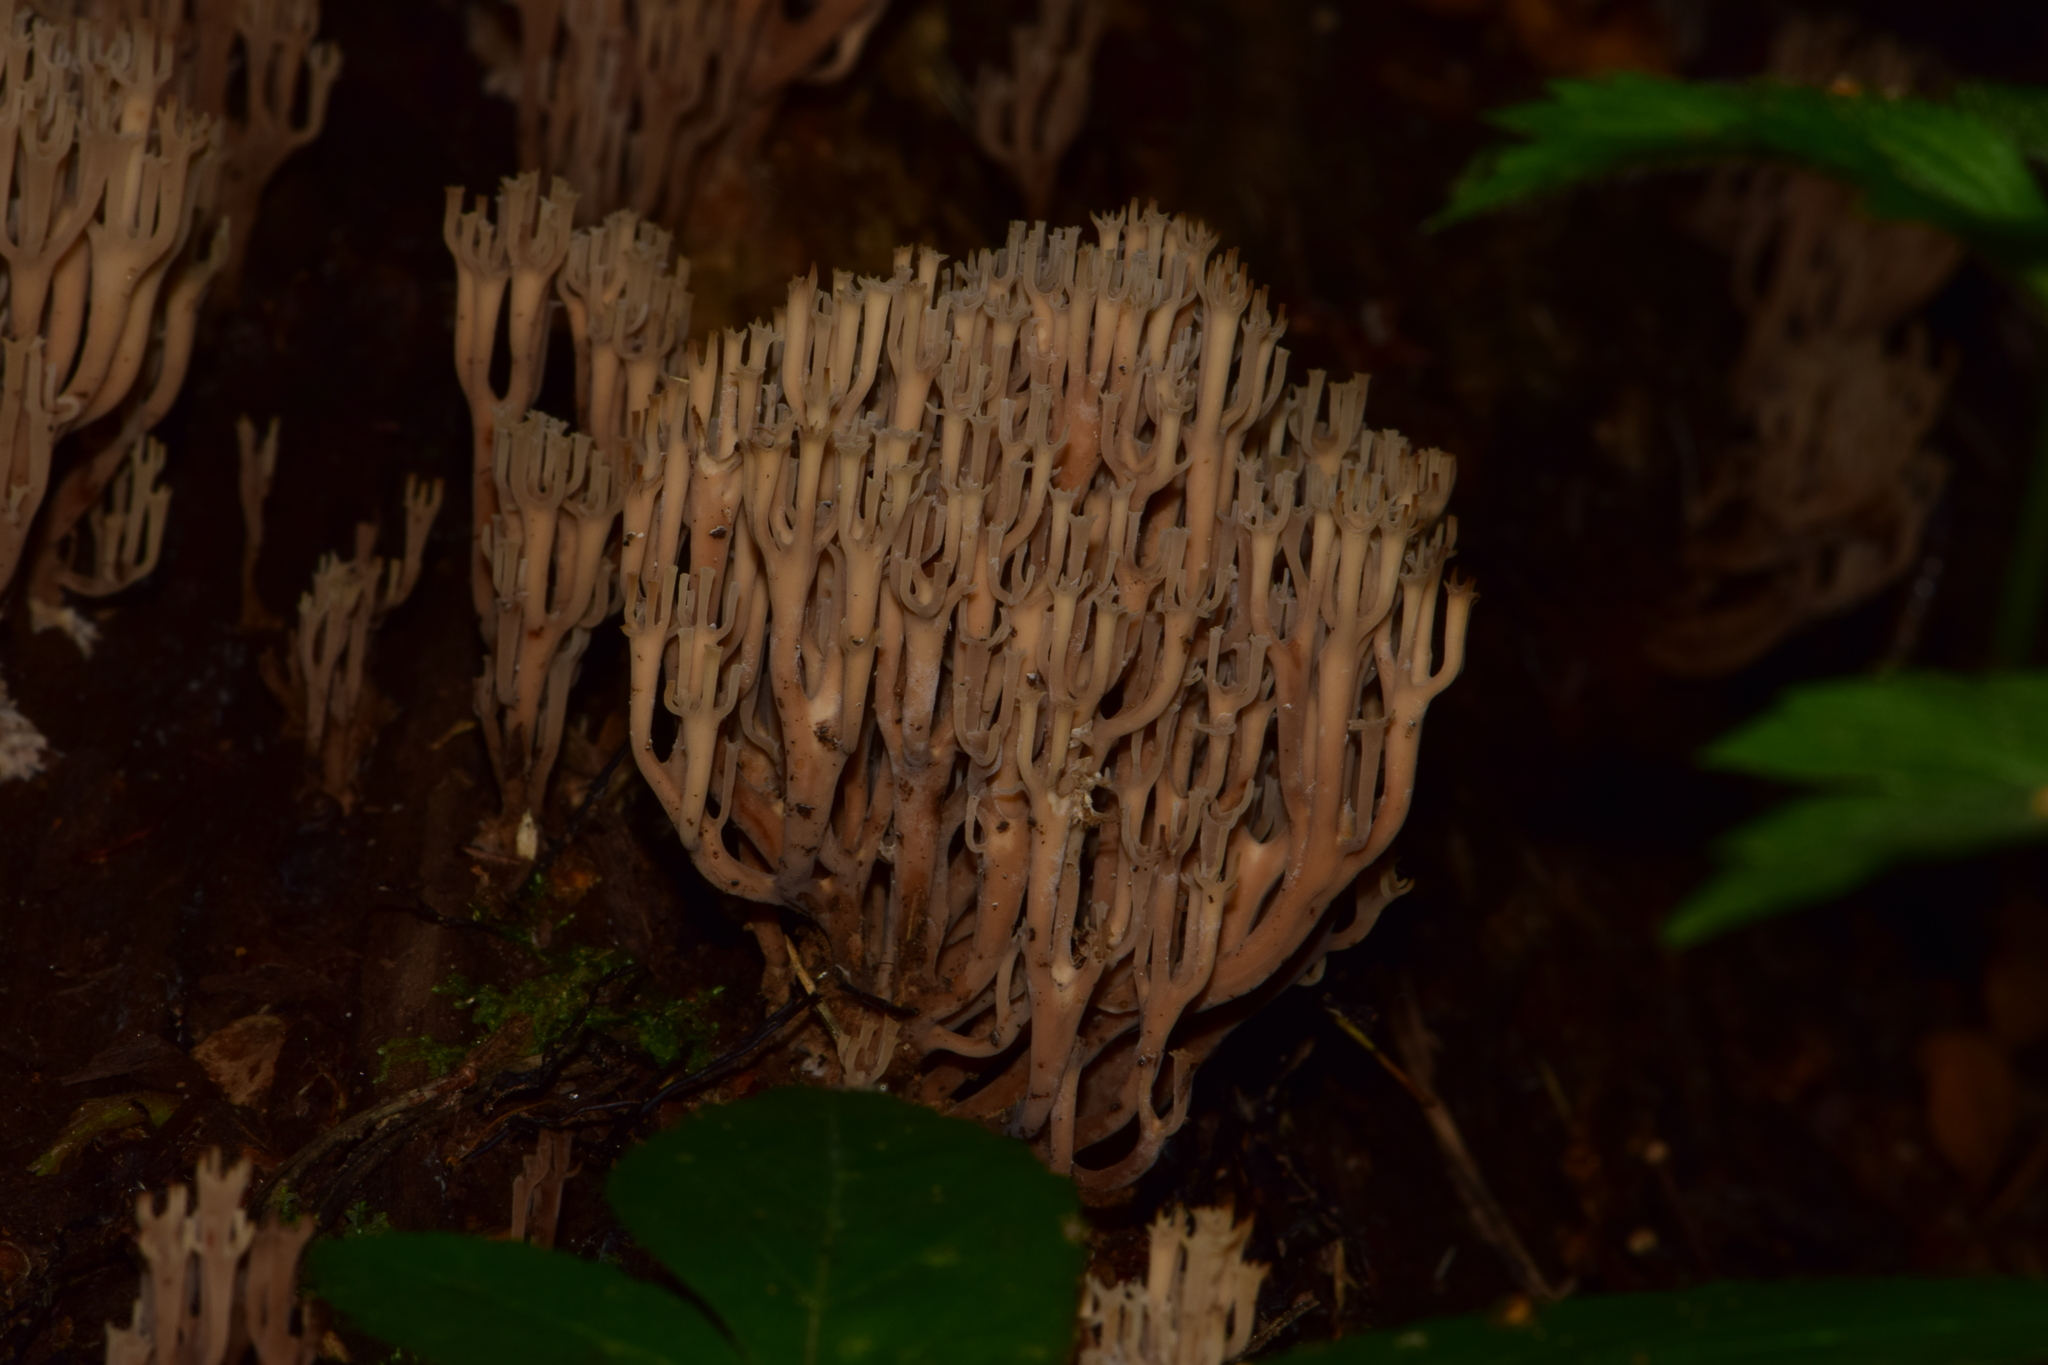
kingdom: Fungi
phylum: Basidiomycota
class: Agaricomycetes
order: Russulales
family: Auriscalpiaceae
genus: Artomyces
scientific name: Artomyces pyxidatus
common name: Crown-tipped coral fungus
